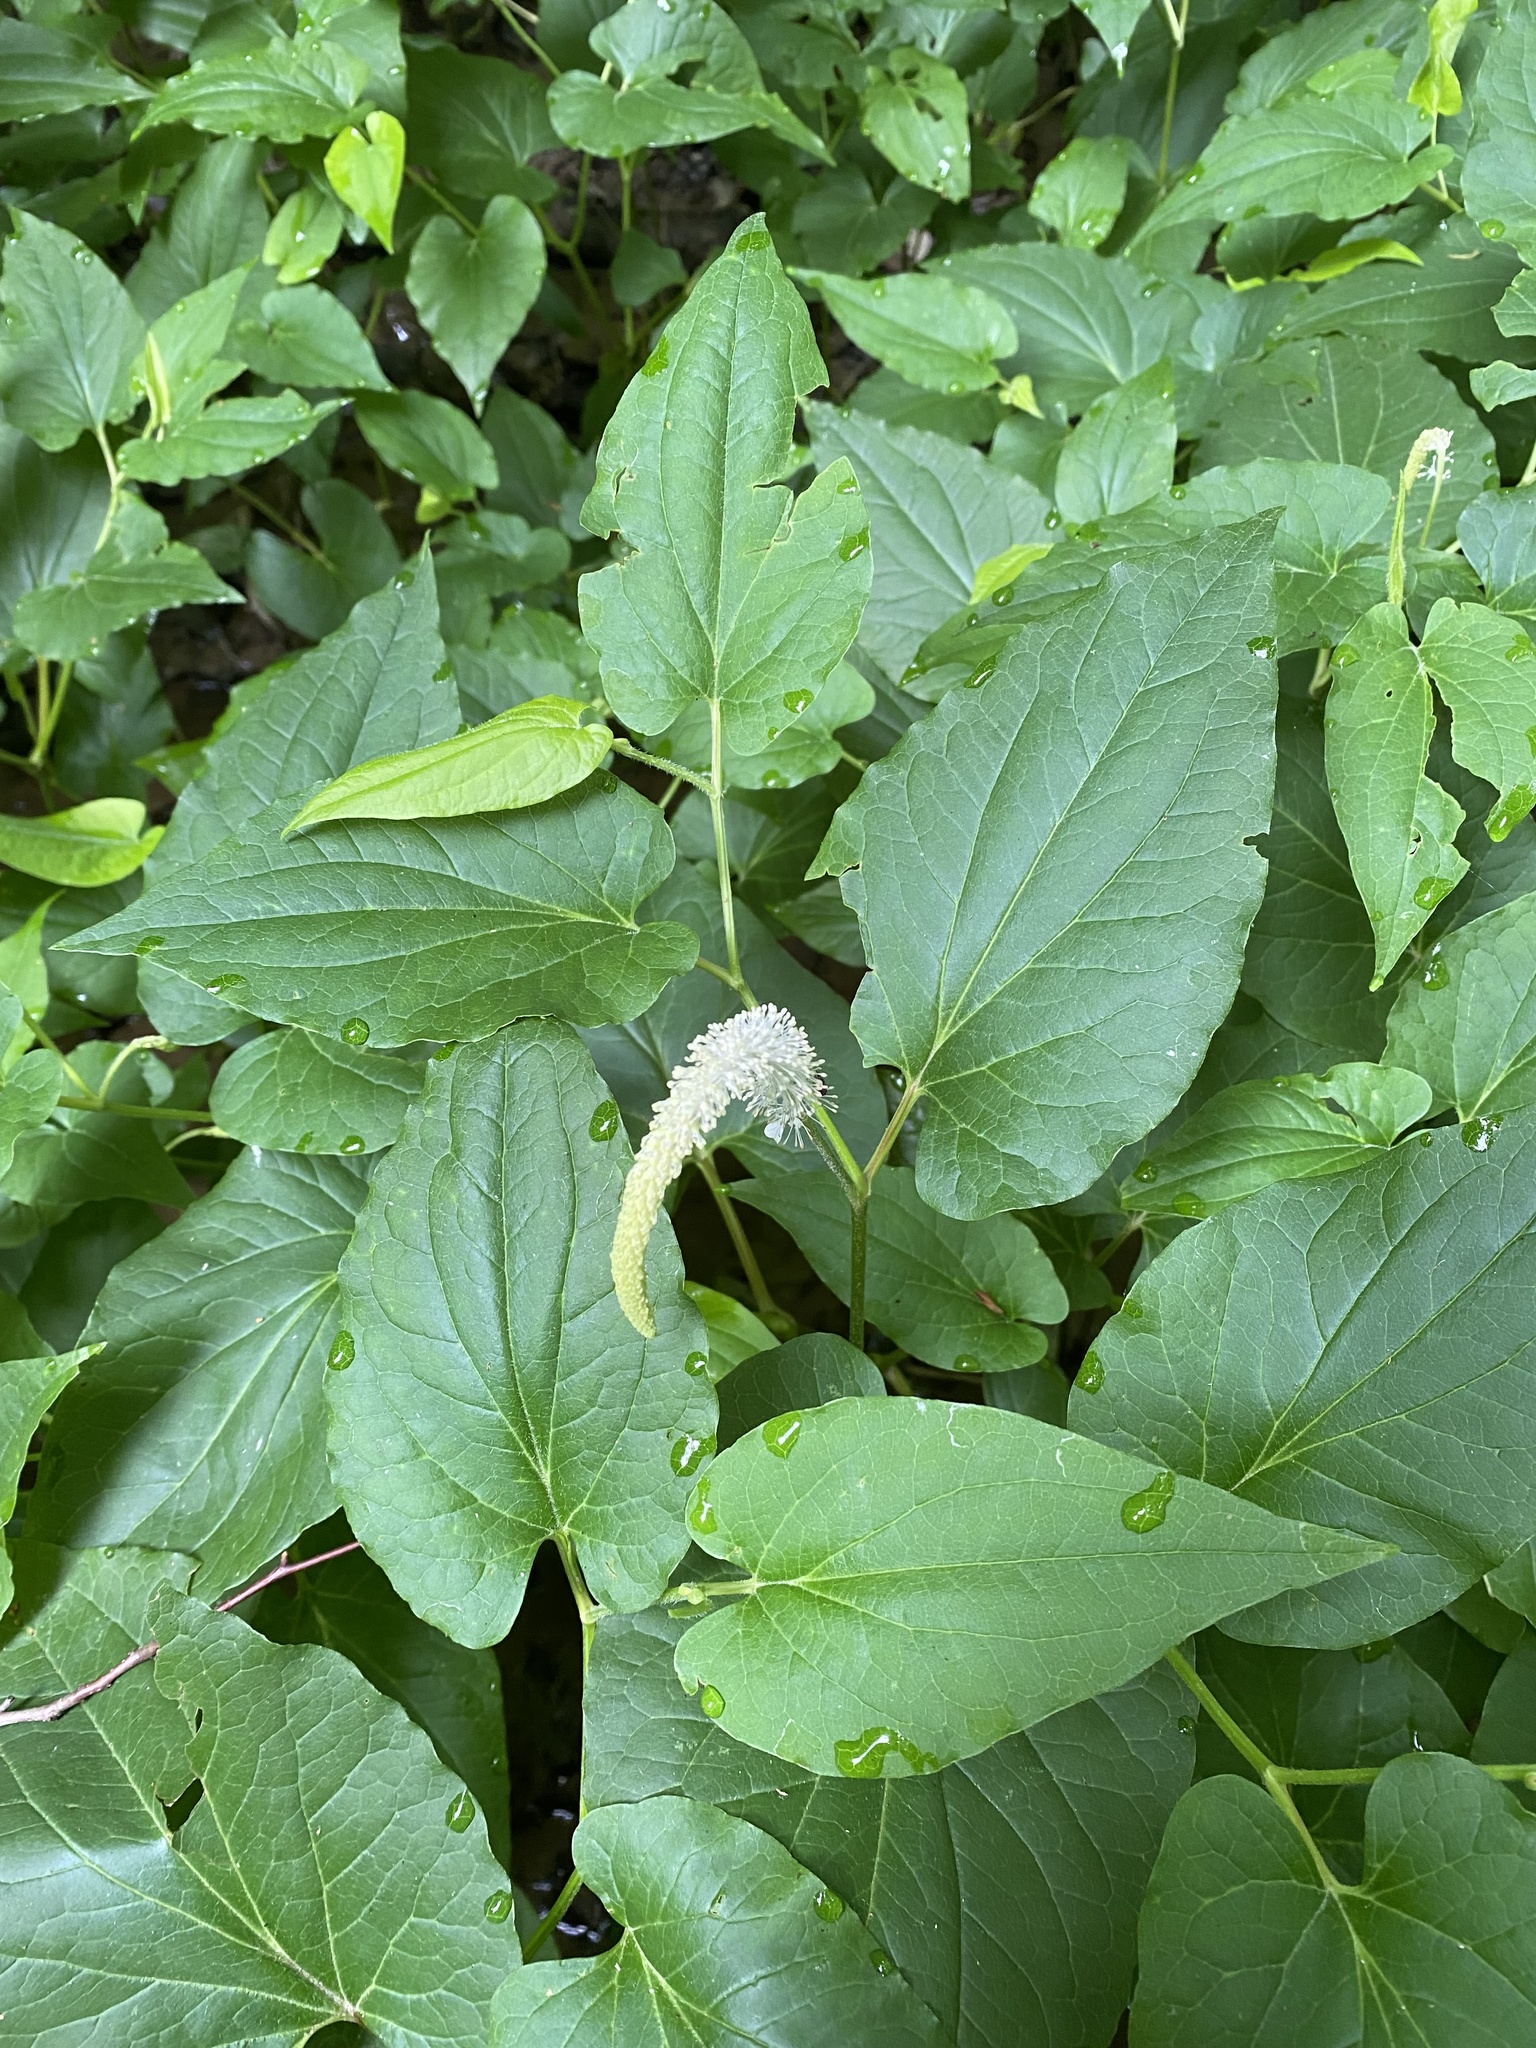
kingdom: Plantae
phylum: Tracheophyta
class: Magnoliopsida
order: Piperales
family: Saururaceae
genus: Saururus
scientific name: Saururus cernuus
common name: Lizard's-tail
